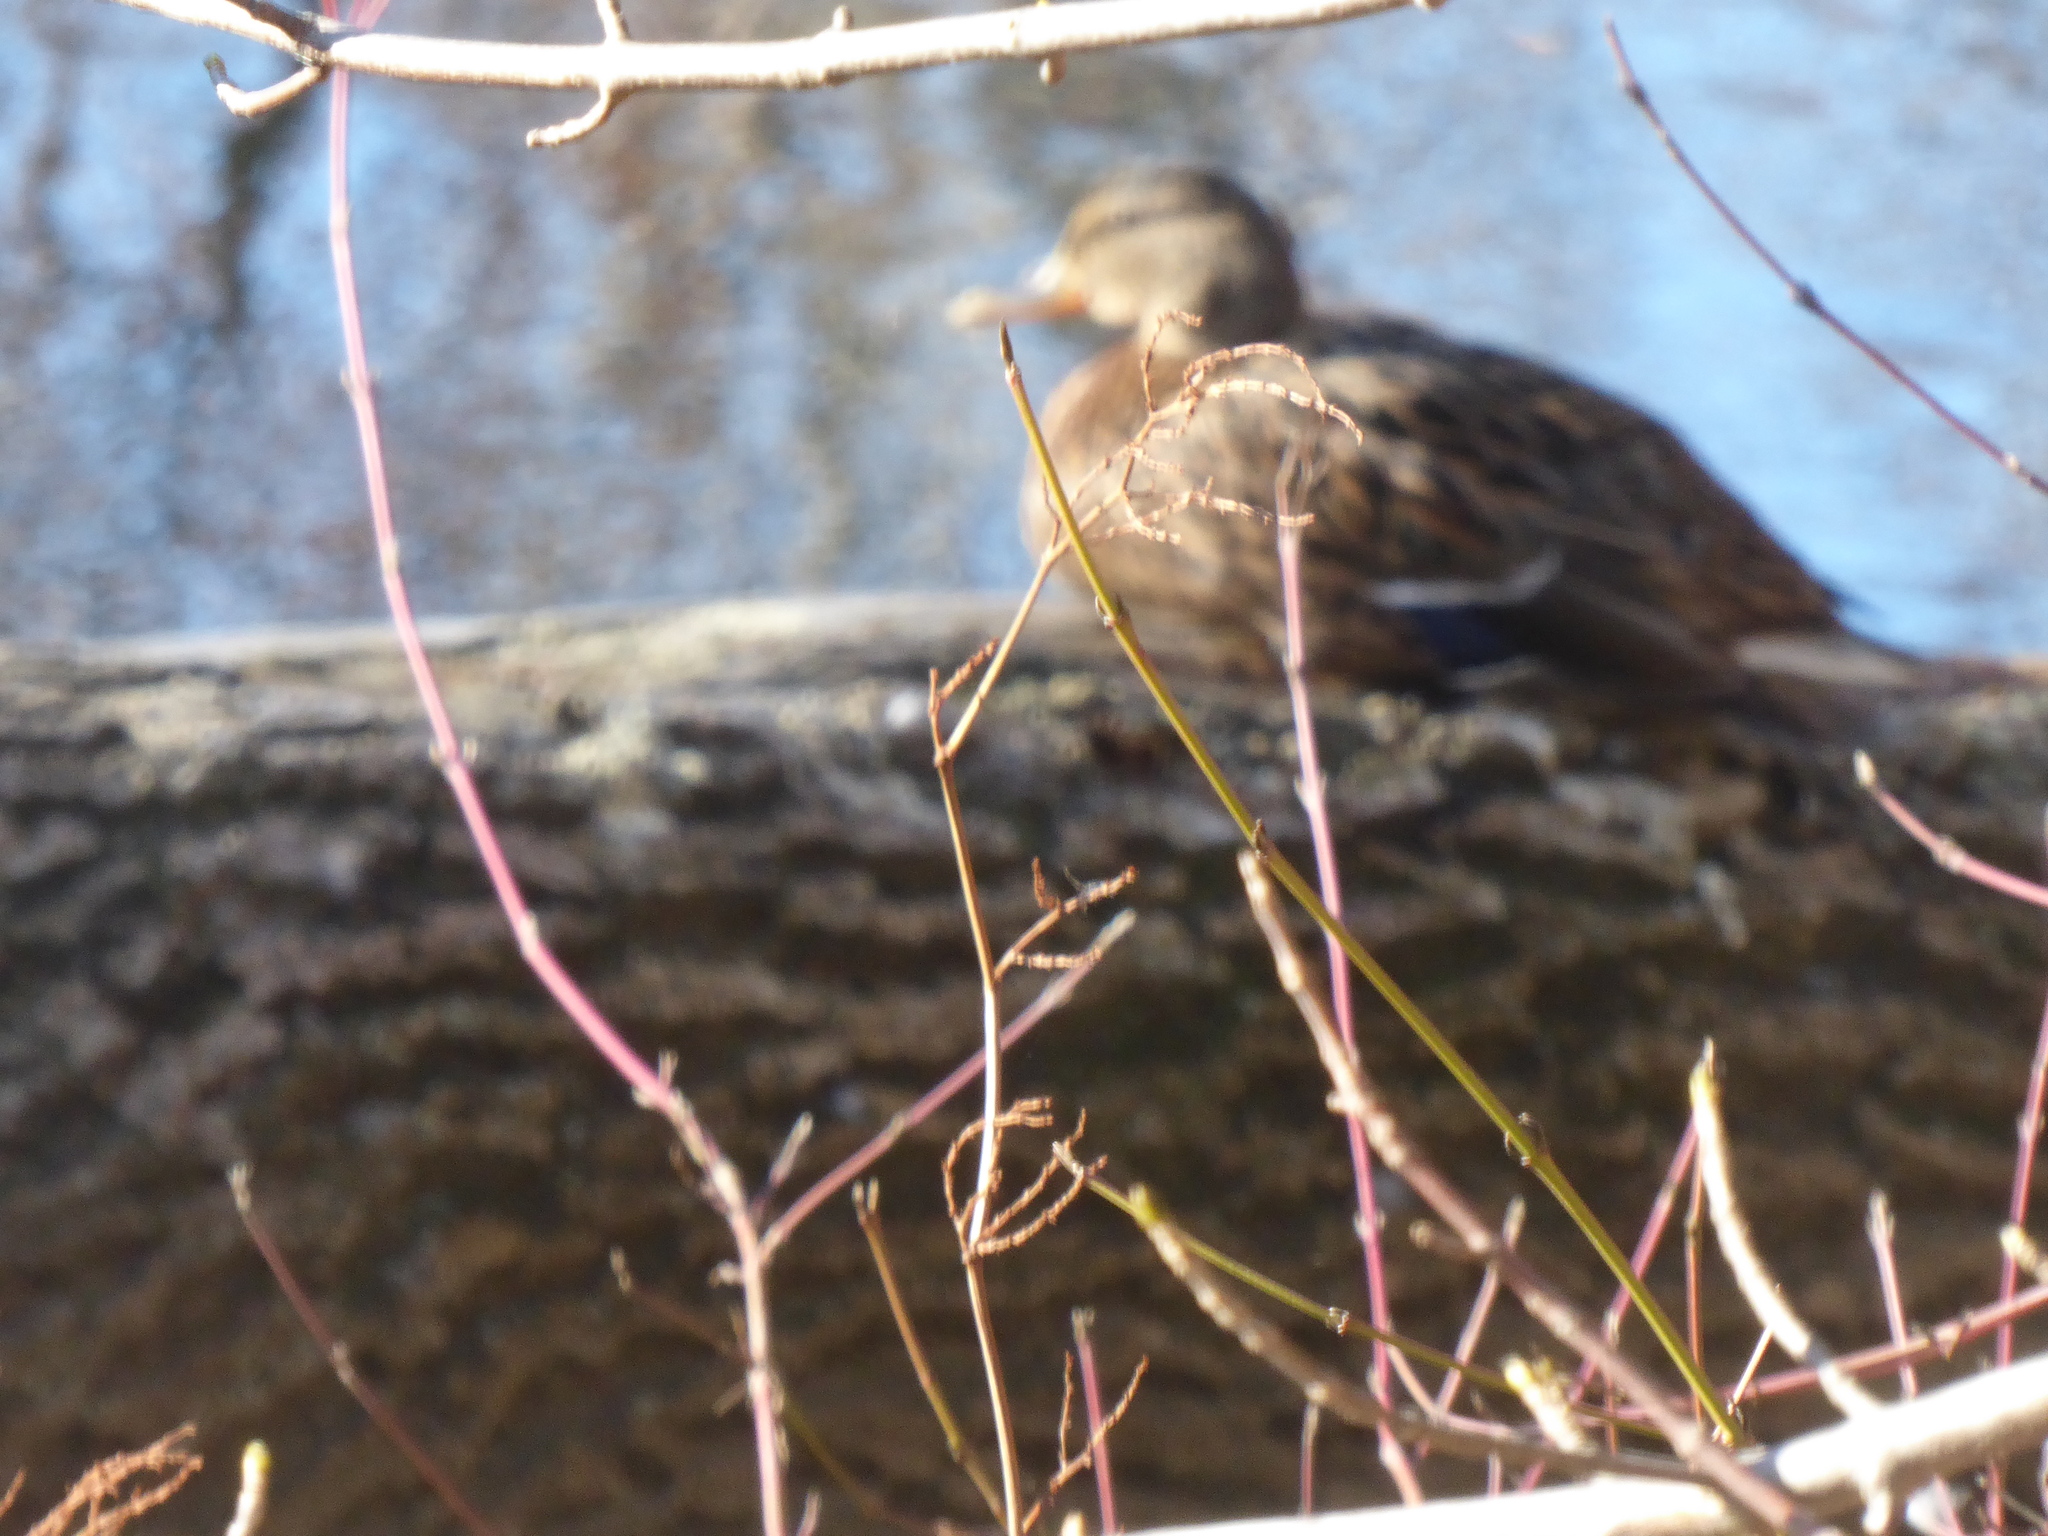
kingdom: Animalia
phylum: Chordata
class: Aves
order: Anseriformes
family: Anatidae
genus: Anas
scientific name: Anas platyrhynchos
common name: Mallard
